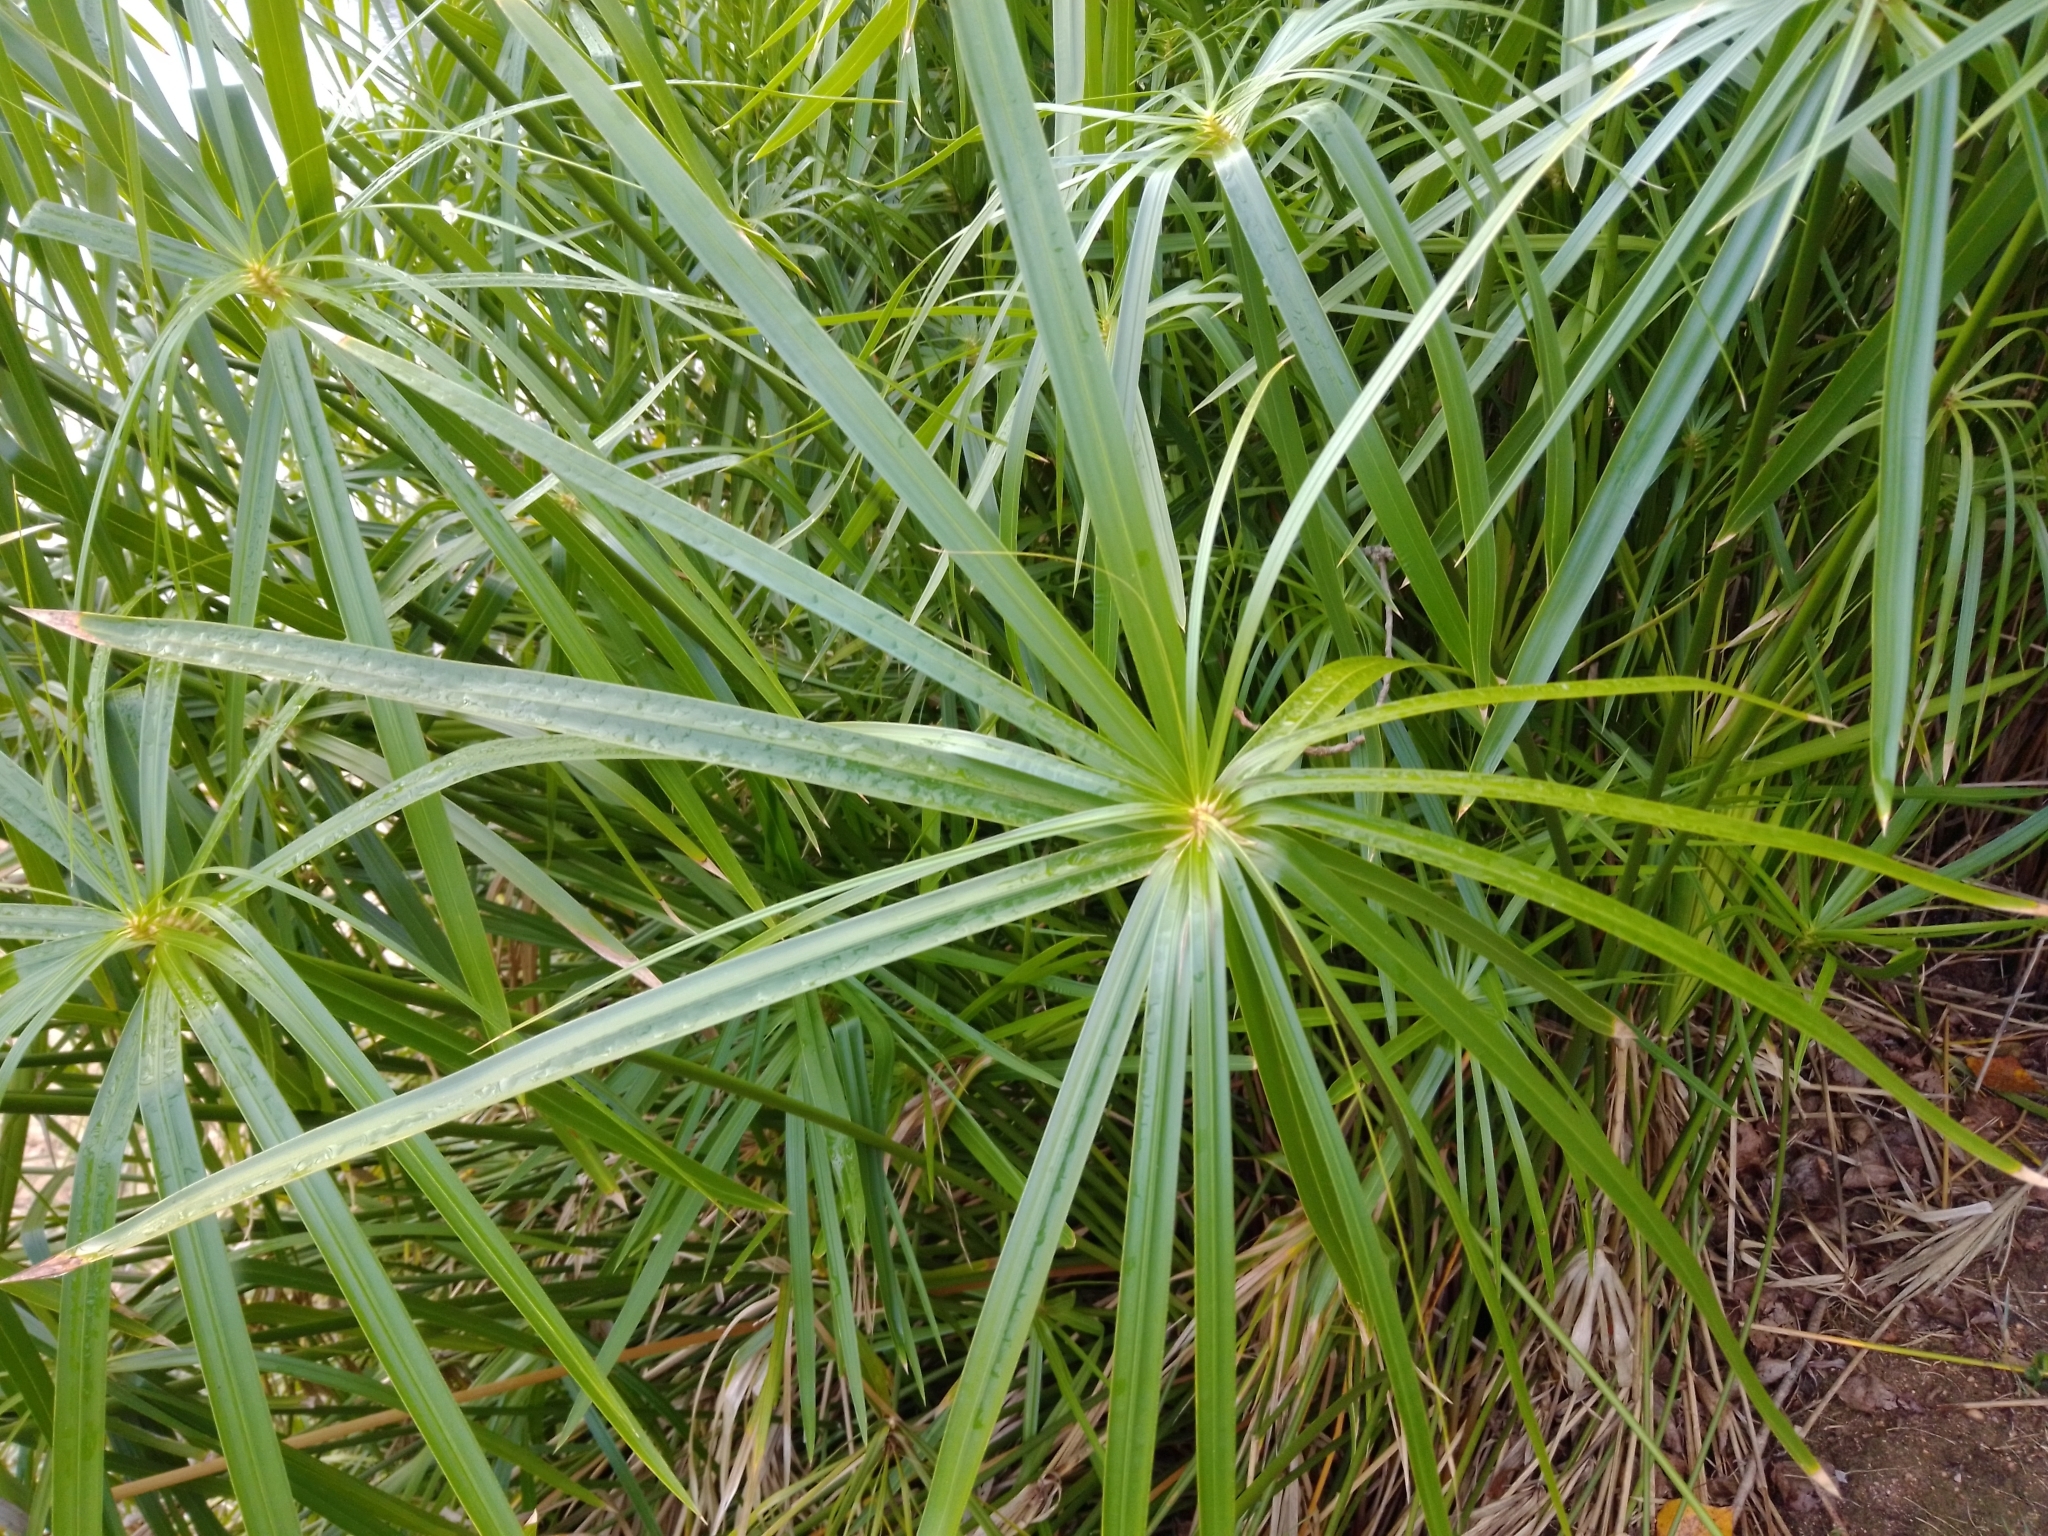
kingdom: Plantae
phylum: Tracheophyta
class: Liliopsida
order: Poales
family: Cyperaceae
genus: Cyperus
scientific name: Cyperus alternifolius
